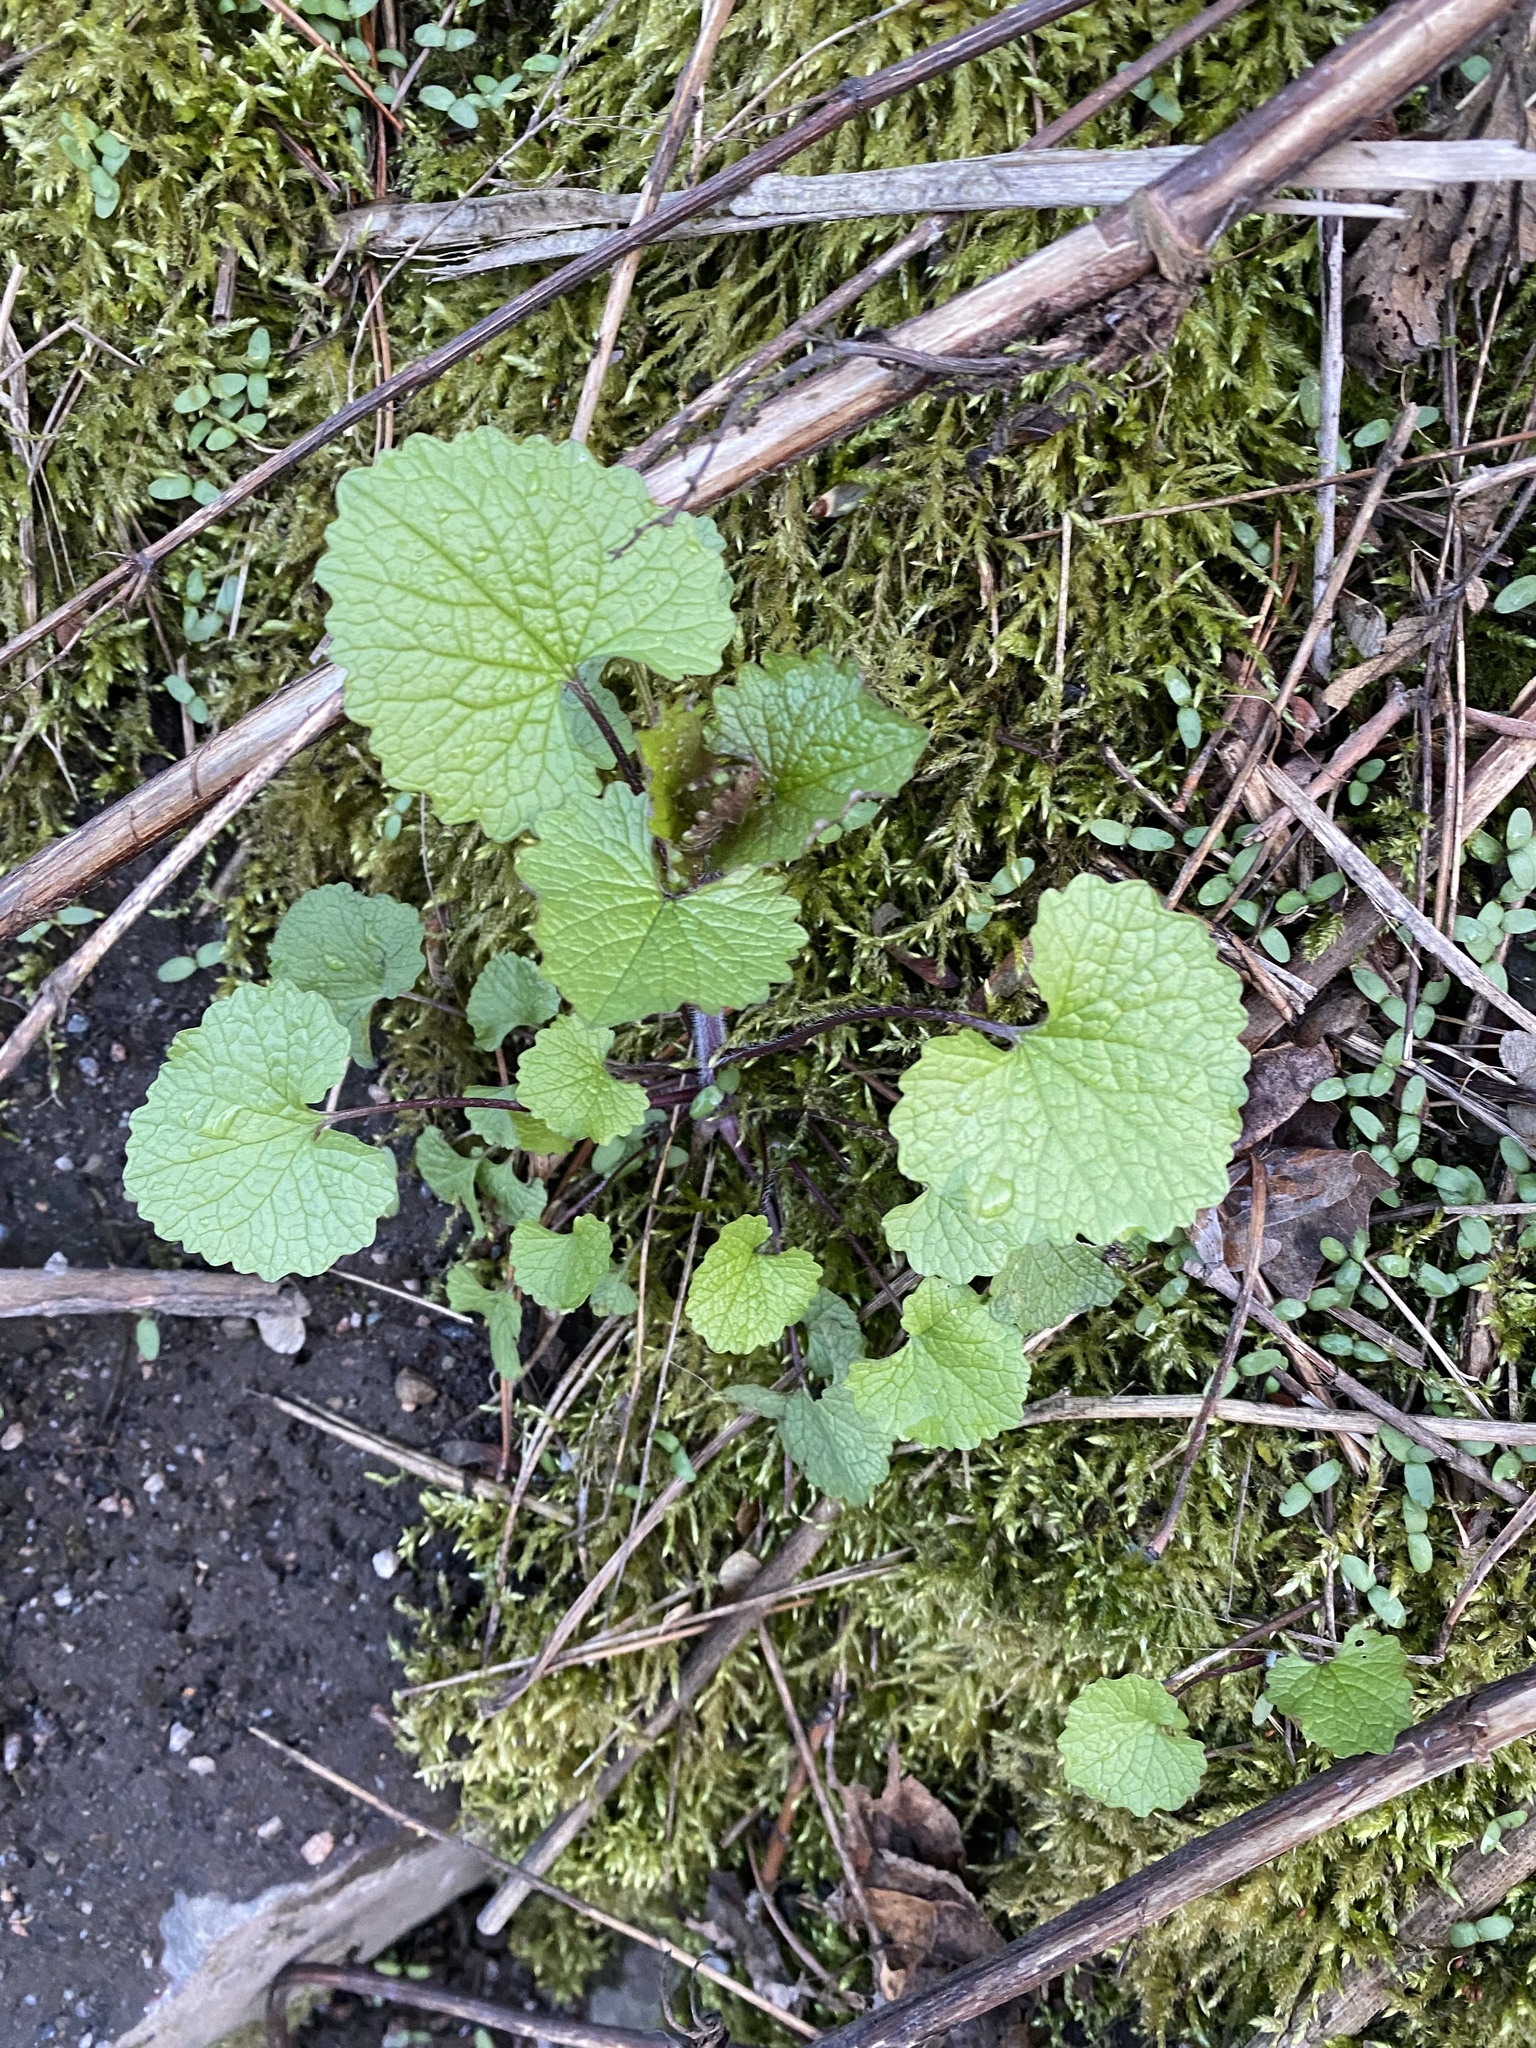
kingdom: Plantae
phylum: Tracheophyta
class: Magnoliopsida
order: Brassicales
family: Brassicaceae
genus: Alliaria
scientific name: Alliaria petiolata
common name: Garlic mustard
